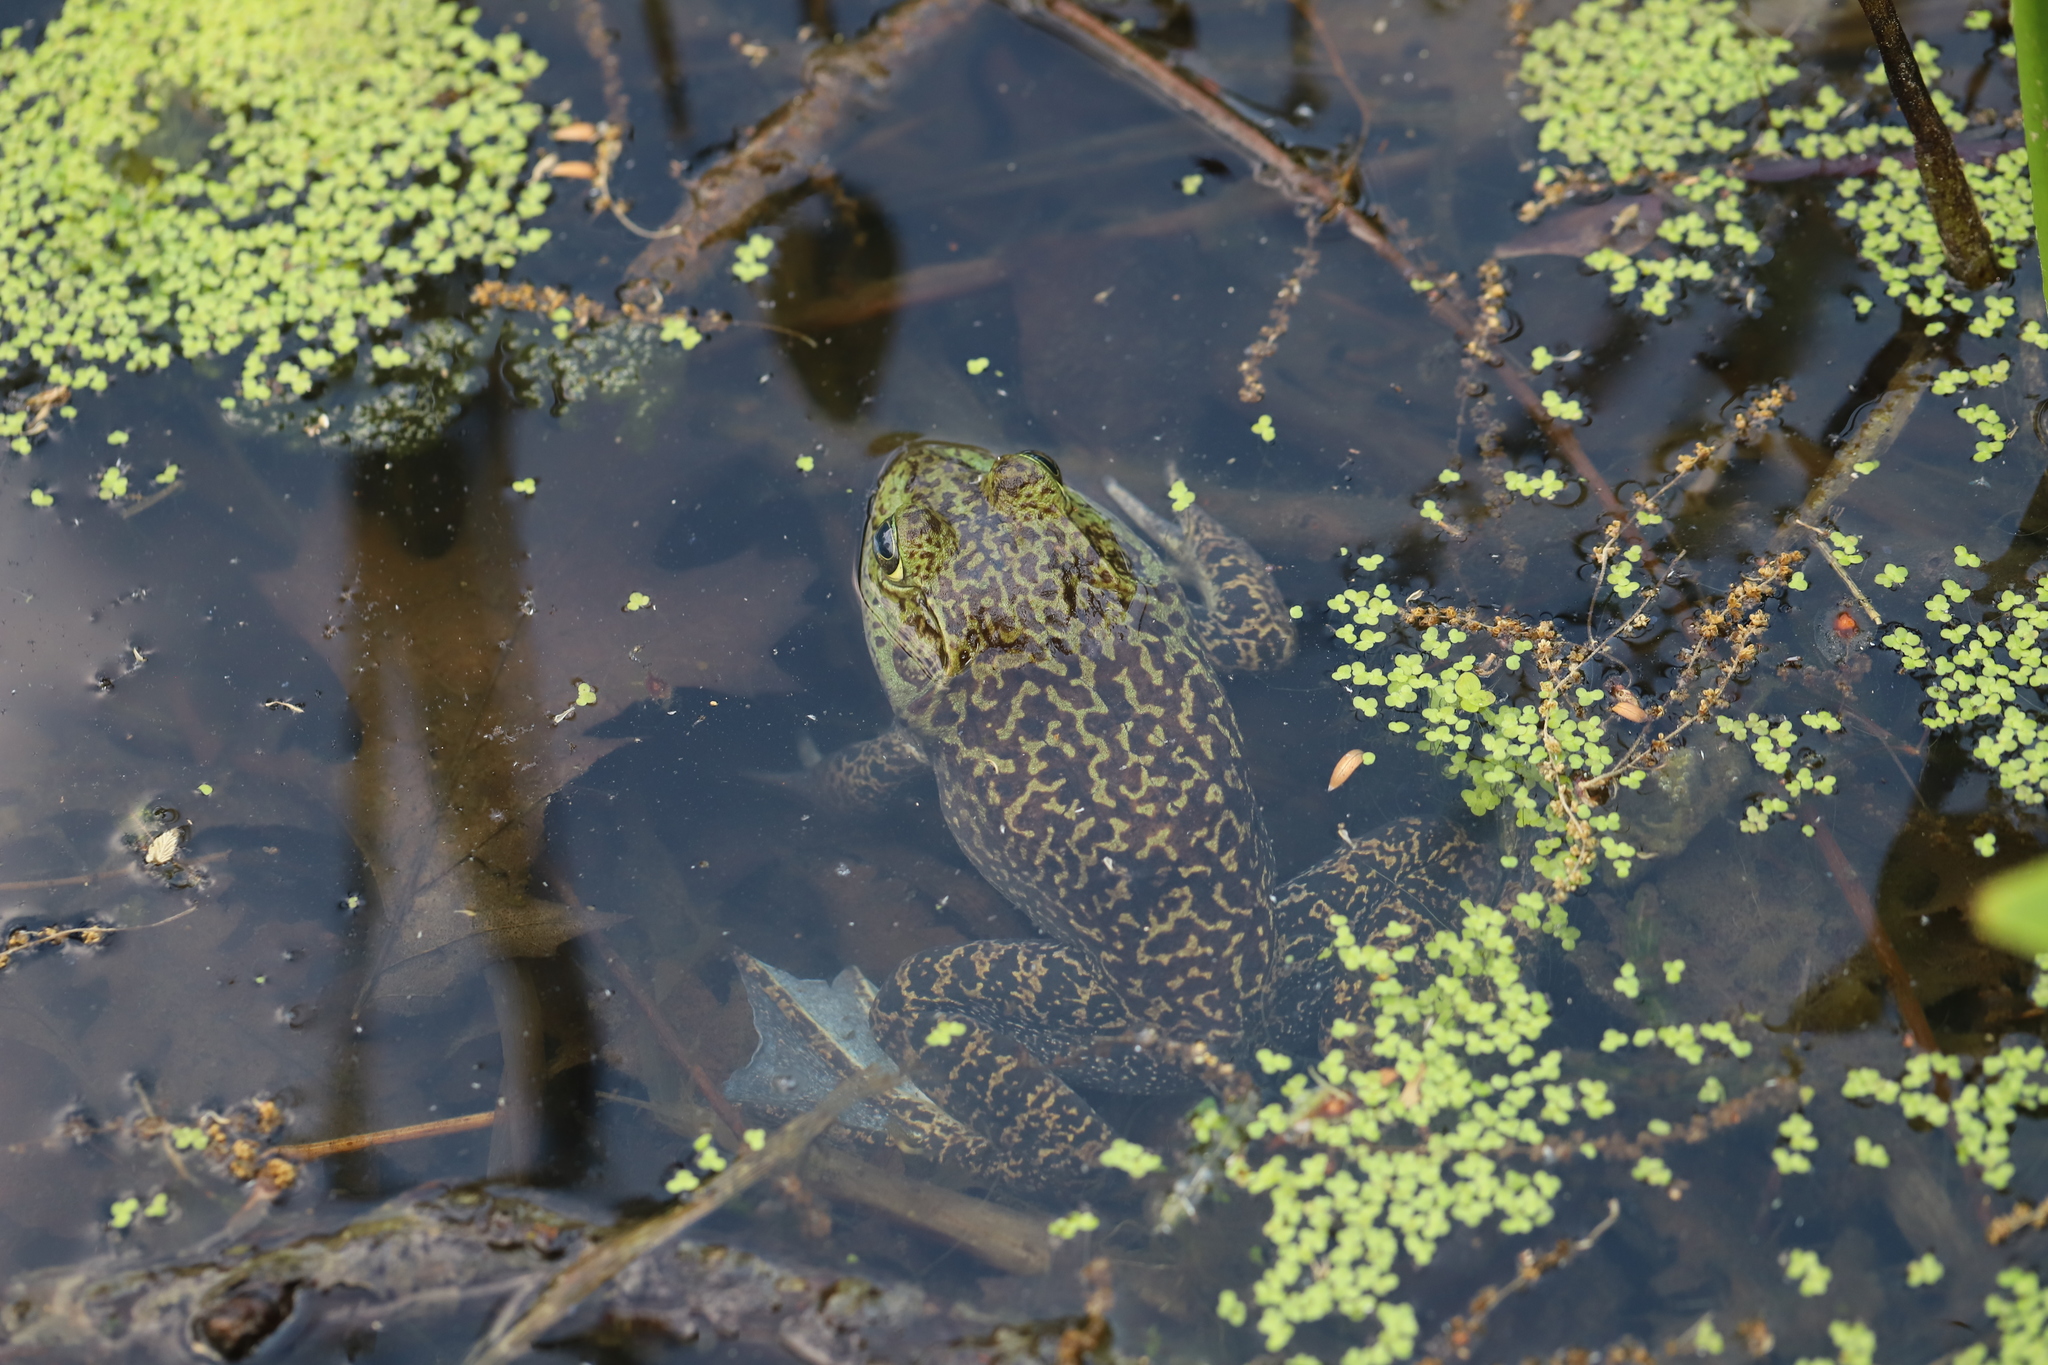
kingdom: Animalia
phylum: Chordata
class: Amphibia
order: Anura
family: Ranidae
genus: Lithobates
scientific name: Lithobates catesbeianus
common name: American bullfrog
